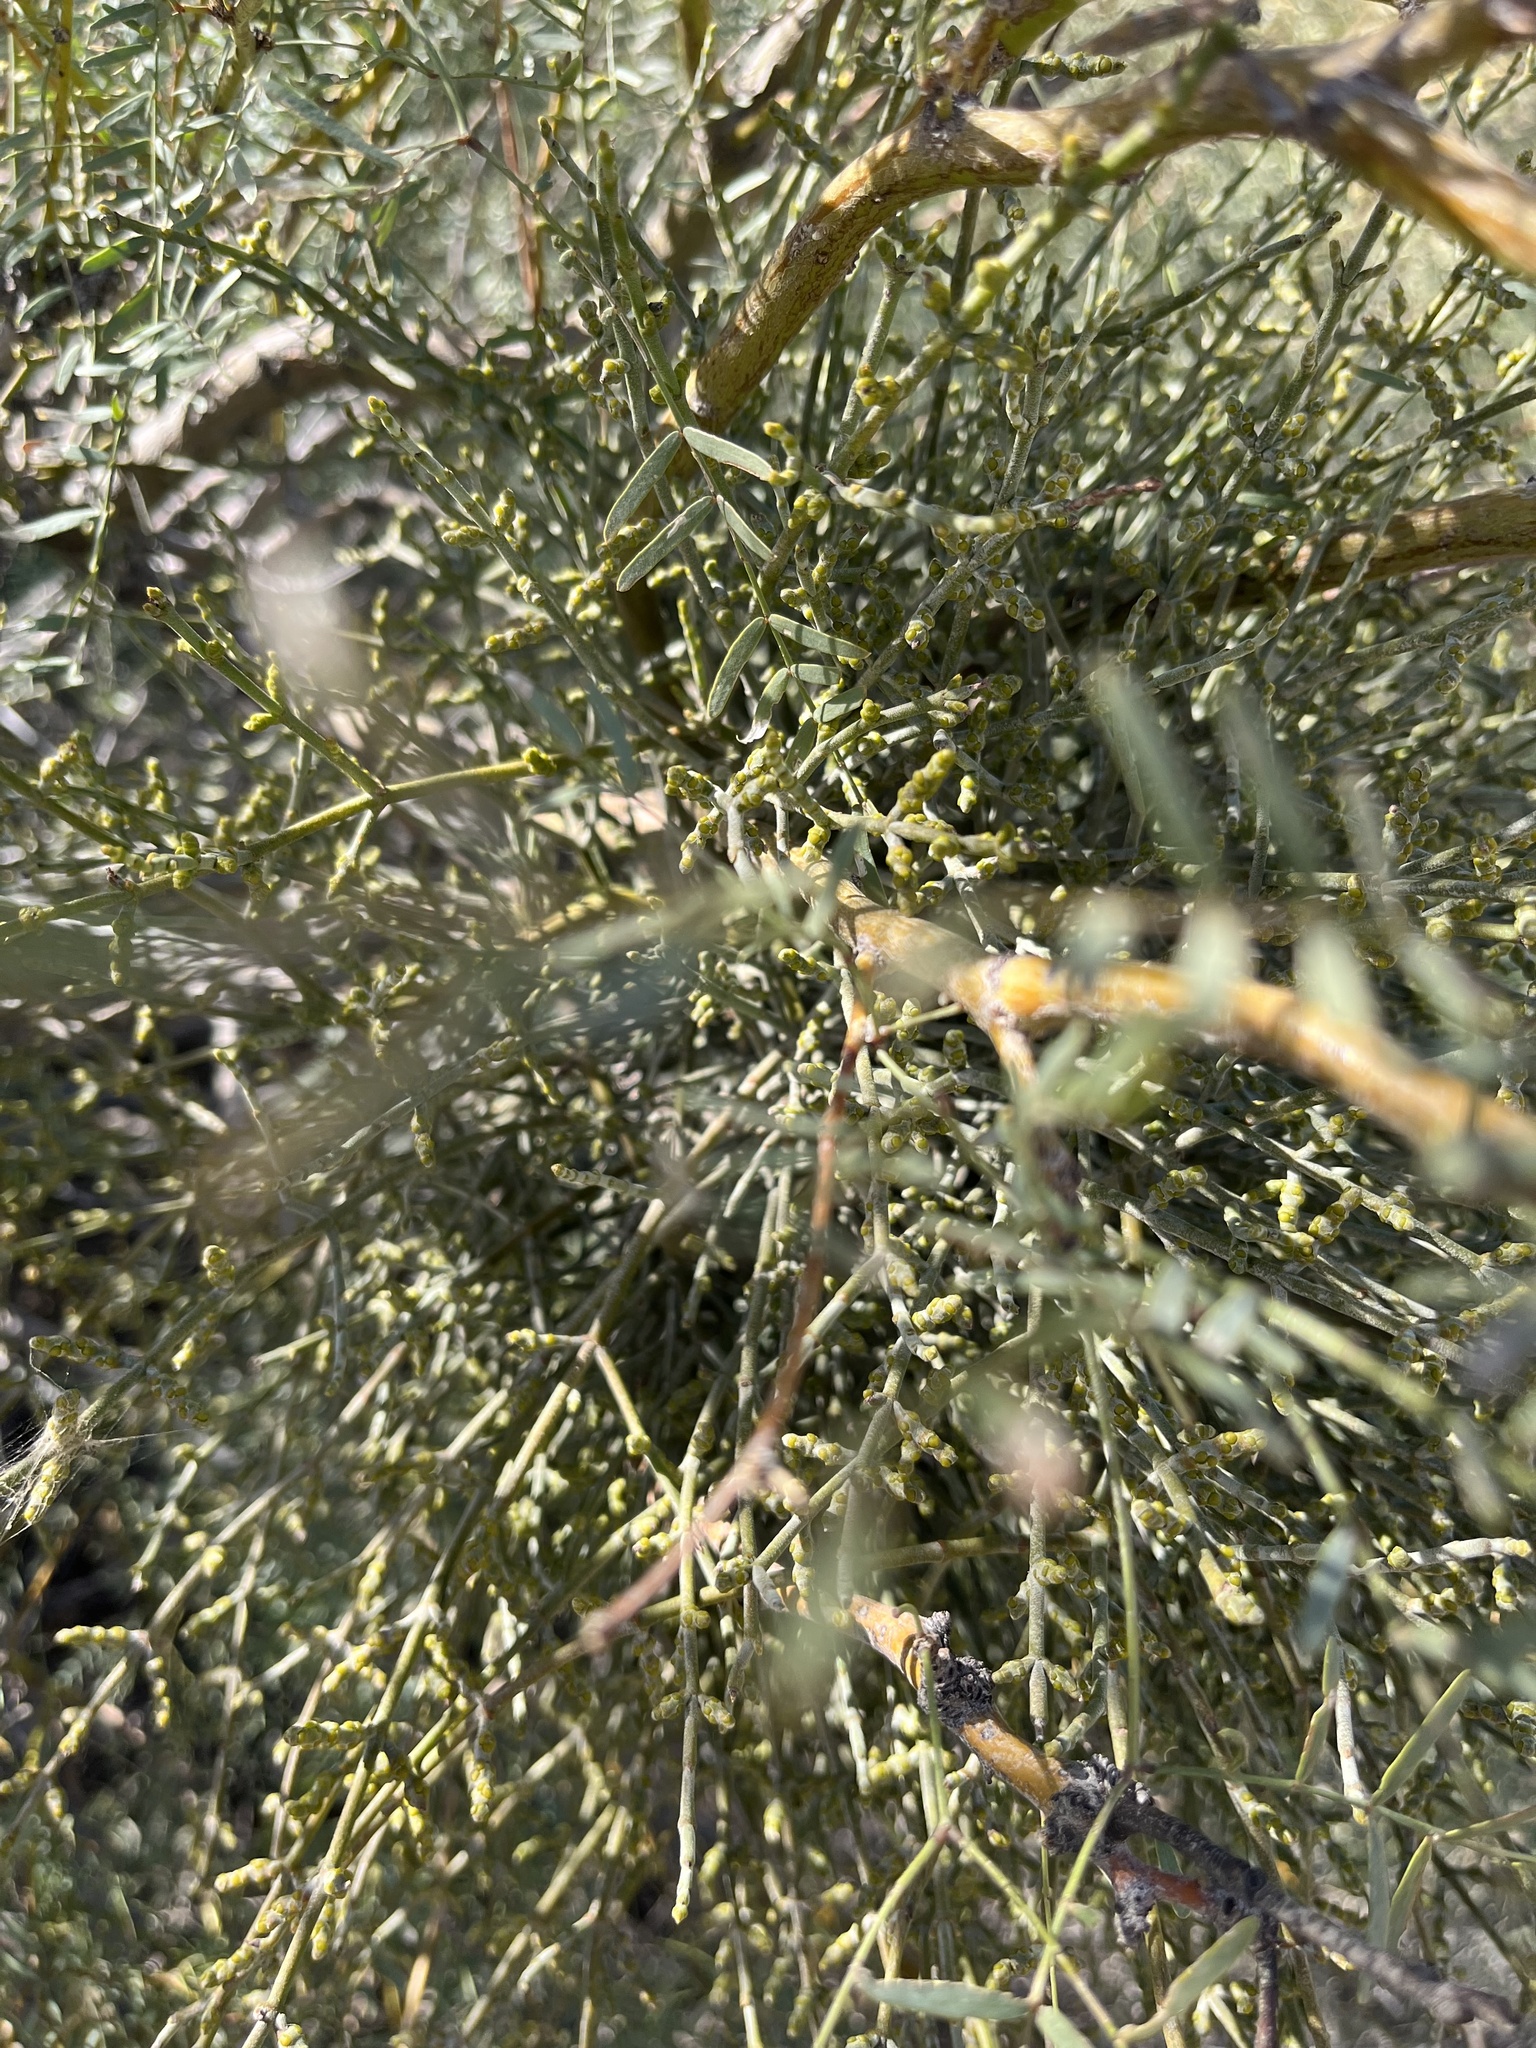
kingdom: Plantae
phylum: Tracheophyta
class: Magnoliopsida
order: Santalales
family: Viscaceae
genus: Phoradendron
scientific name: Phoradendron californicum
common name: Acacia mistletoe
